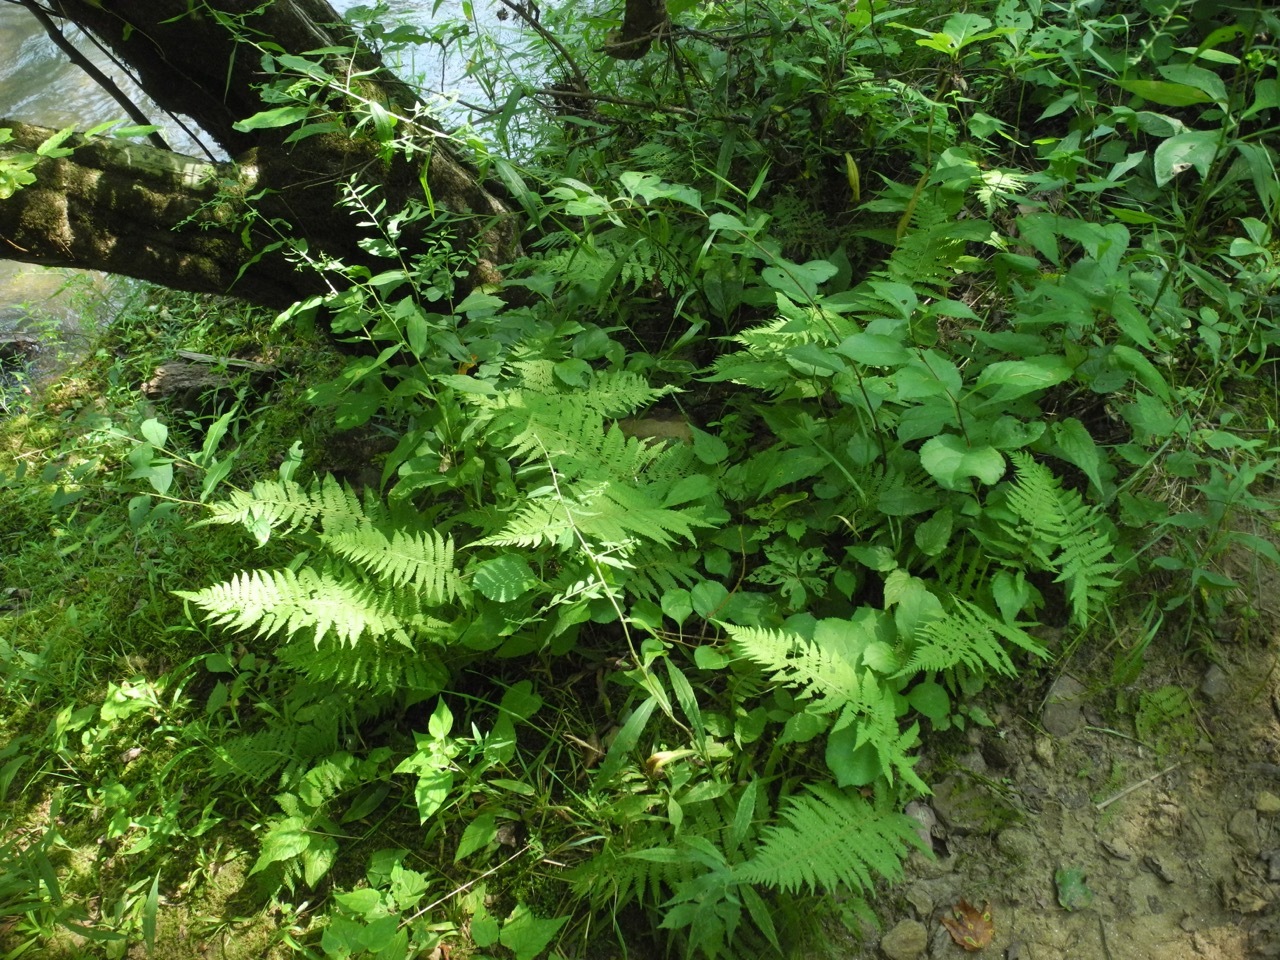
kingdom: Plantae
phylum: Tracheophyta
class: Polypodiopsida
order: Polypodiales
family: Thelypteridaceae
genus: Amauropelta
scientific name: Amauropelta noveboracensis
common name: New york fern
